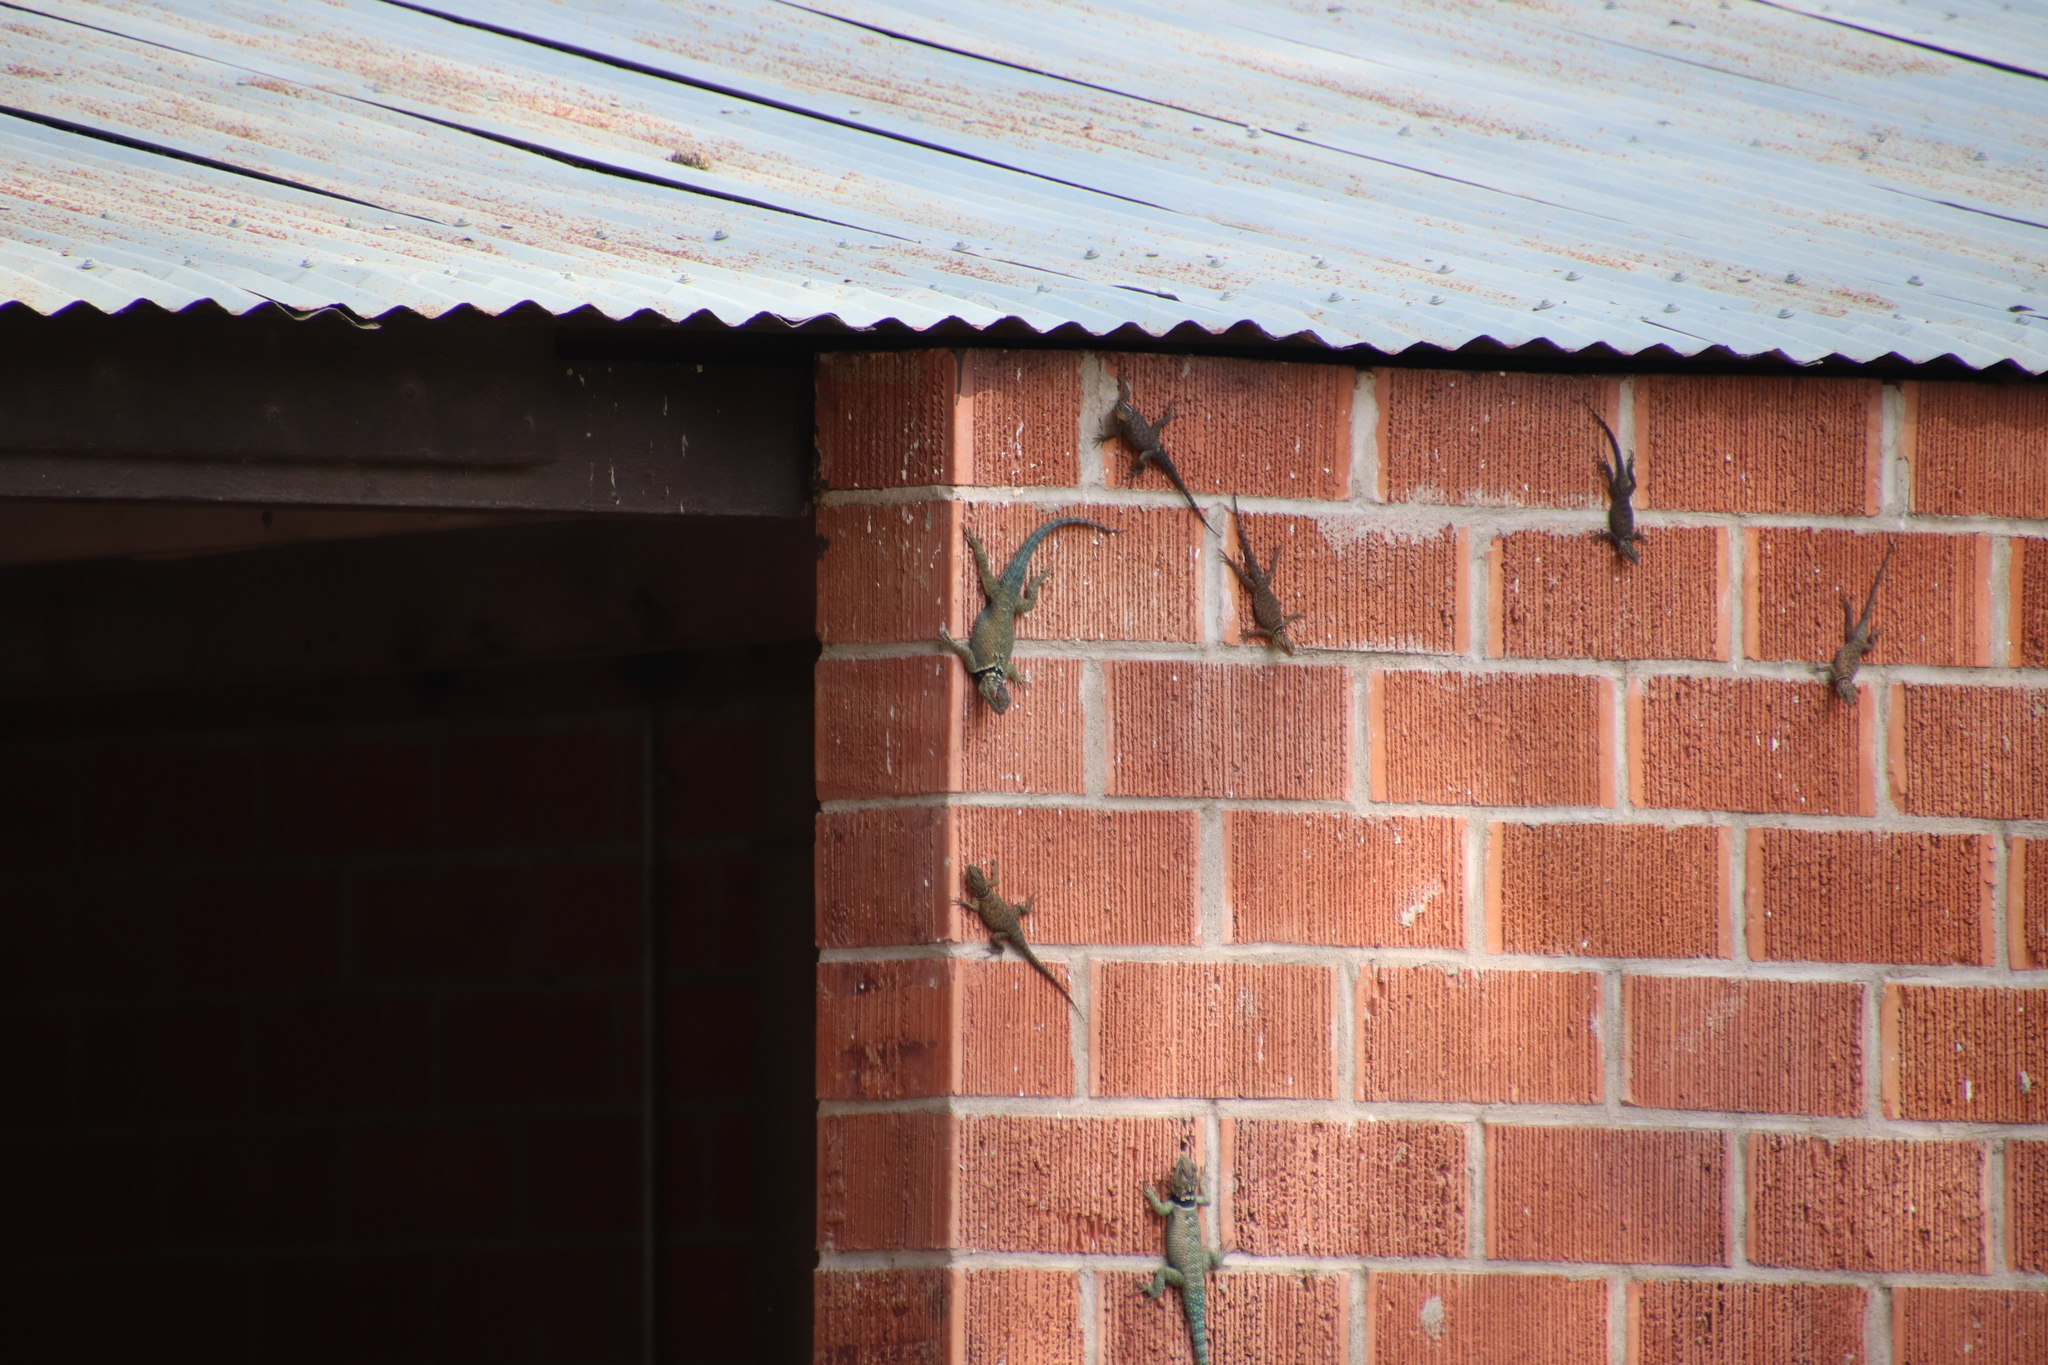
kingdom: Animalia
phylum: Chordata
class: Squamata
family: Phrynosomatidae
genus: Sceloporus
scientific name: Sceloporus cyanogenys
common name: Blue spiny lizard
